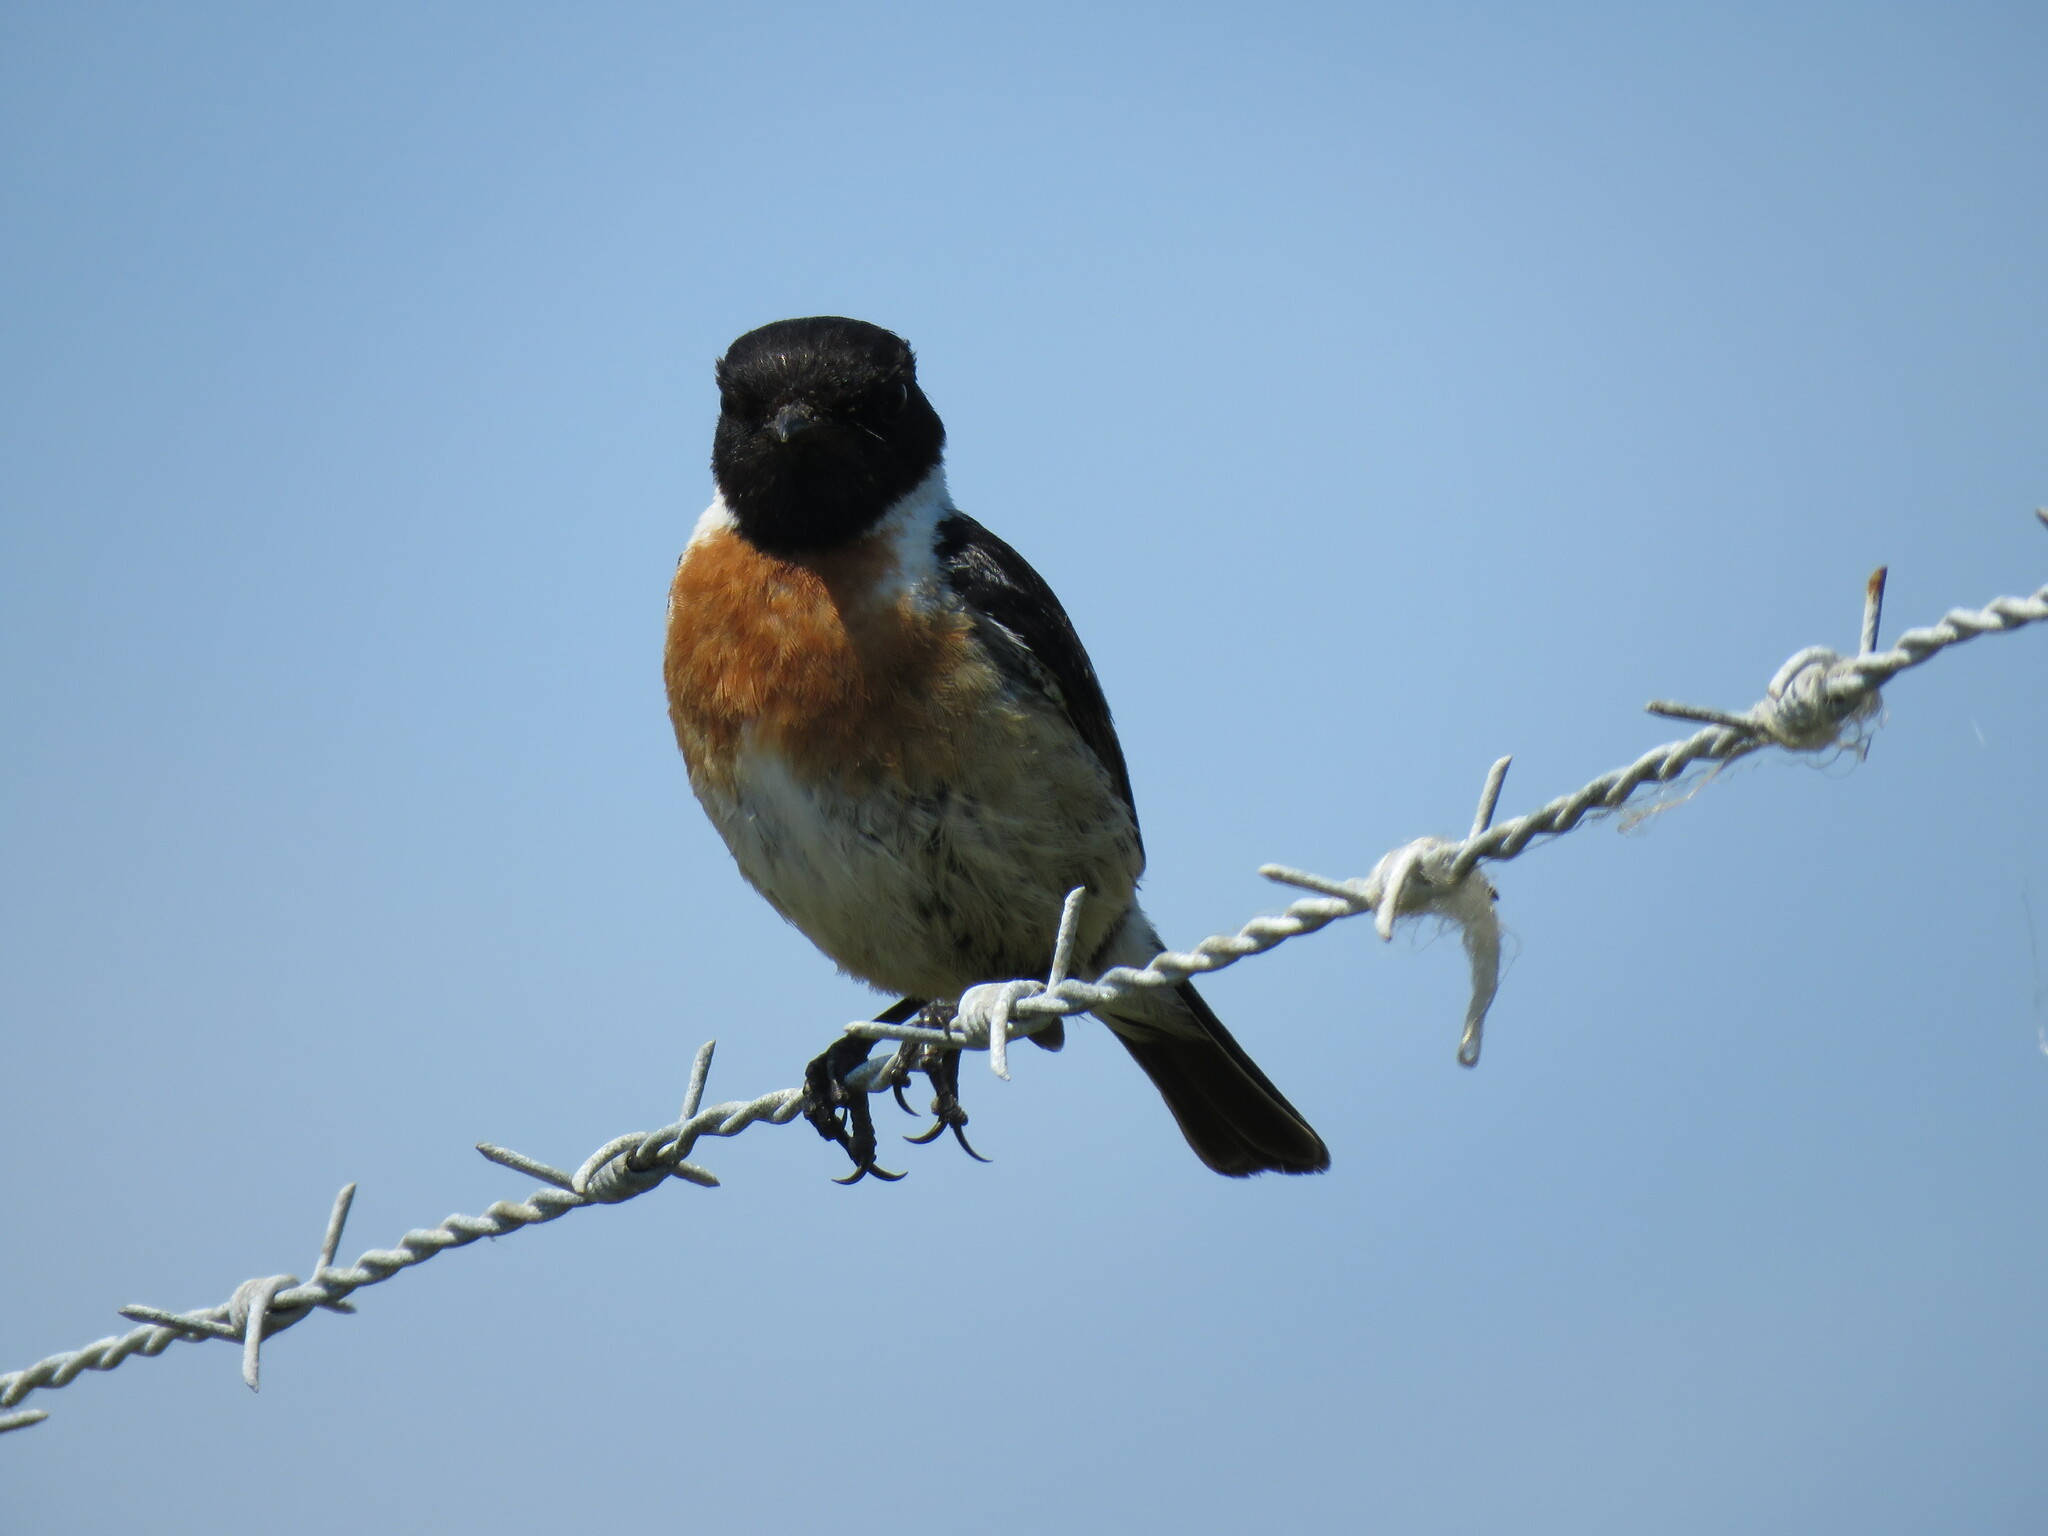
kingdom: Animalia
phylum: Chordata
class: Aves
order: Passeriformes
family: Muscicapidae
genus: Saxicola
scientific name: Saxicola rubicola
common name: European stonechat
